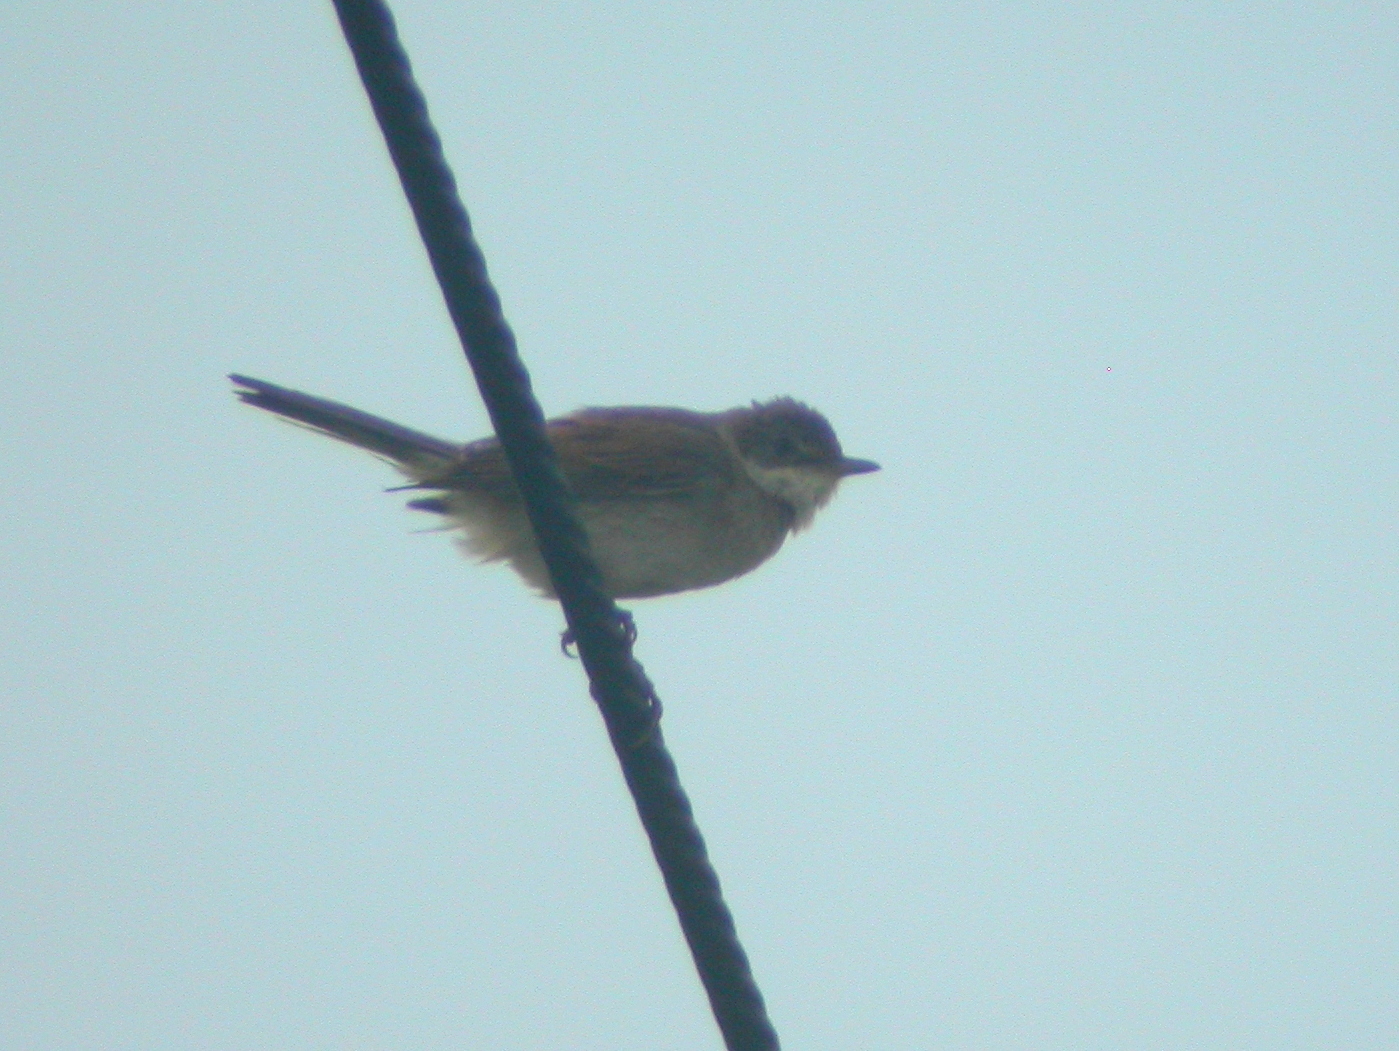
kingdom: Animalia
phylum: Chordata
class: Aves
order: Passeriformes
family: Sylviidae
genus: Sylvia
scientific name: Sylvia communis
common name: Common whitethroat
